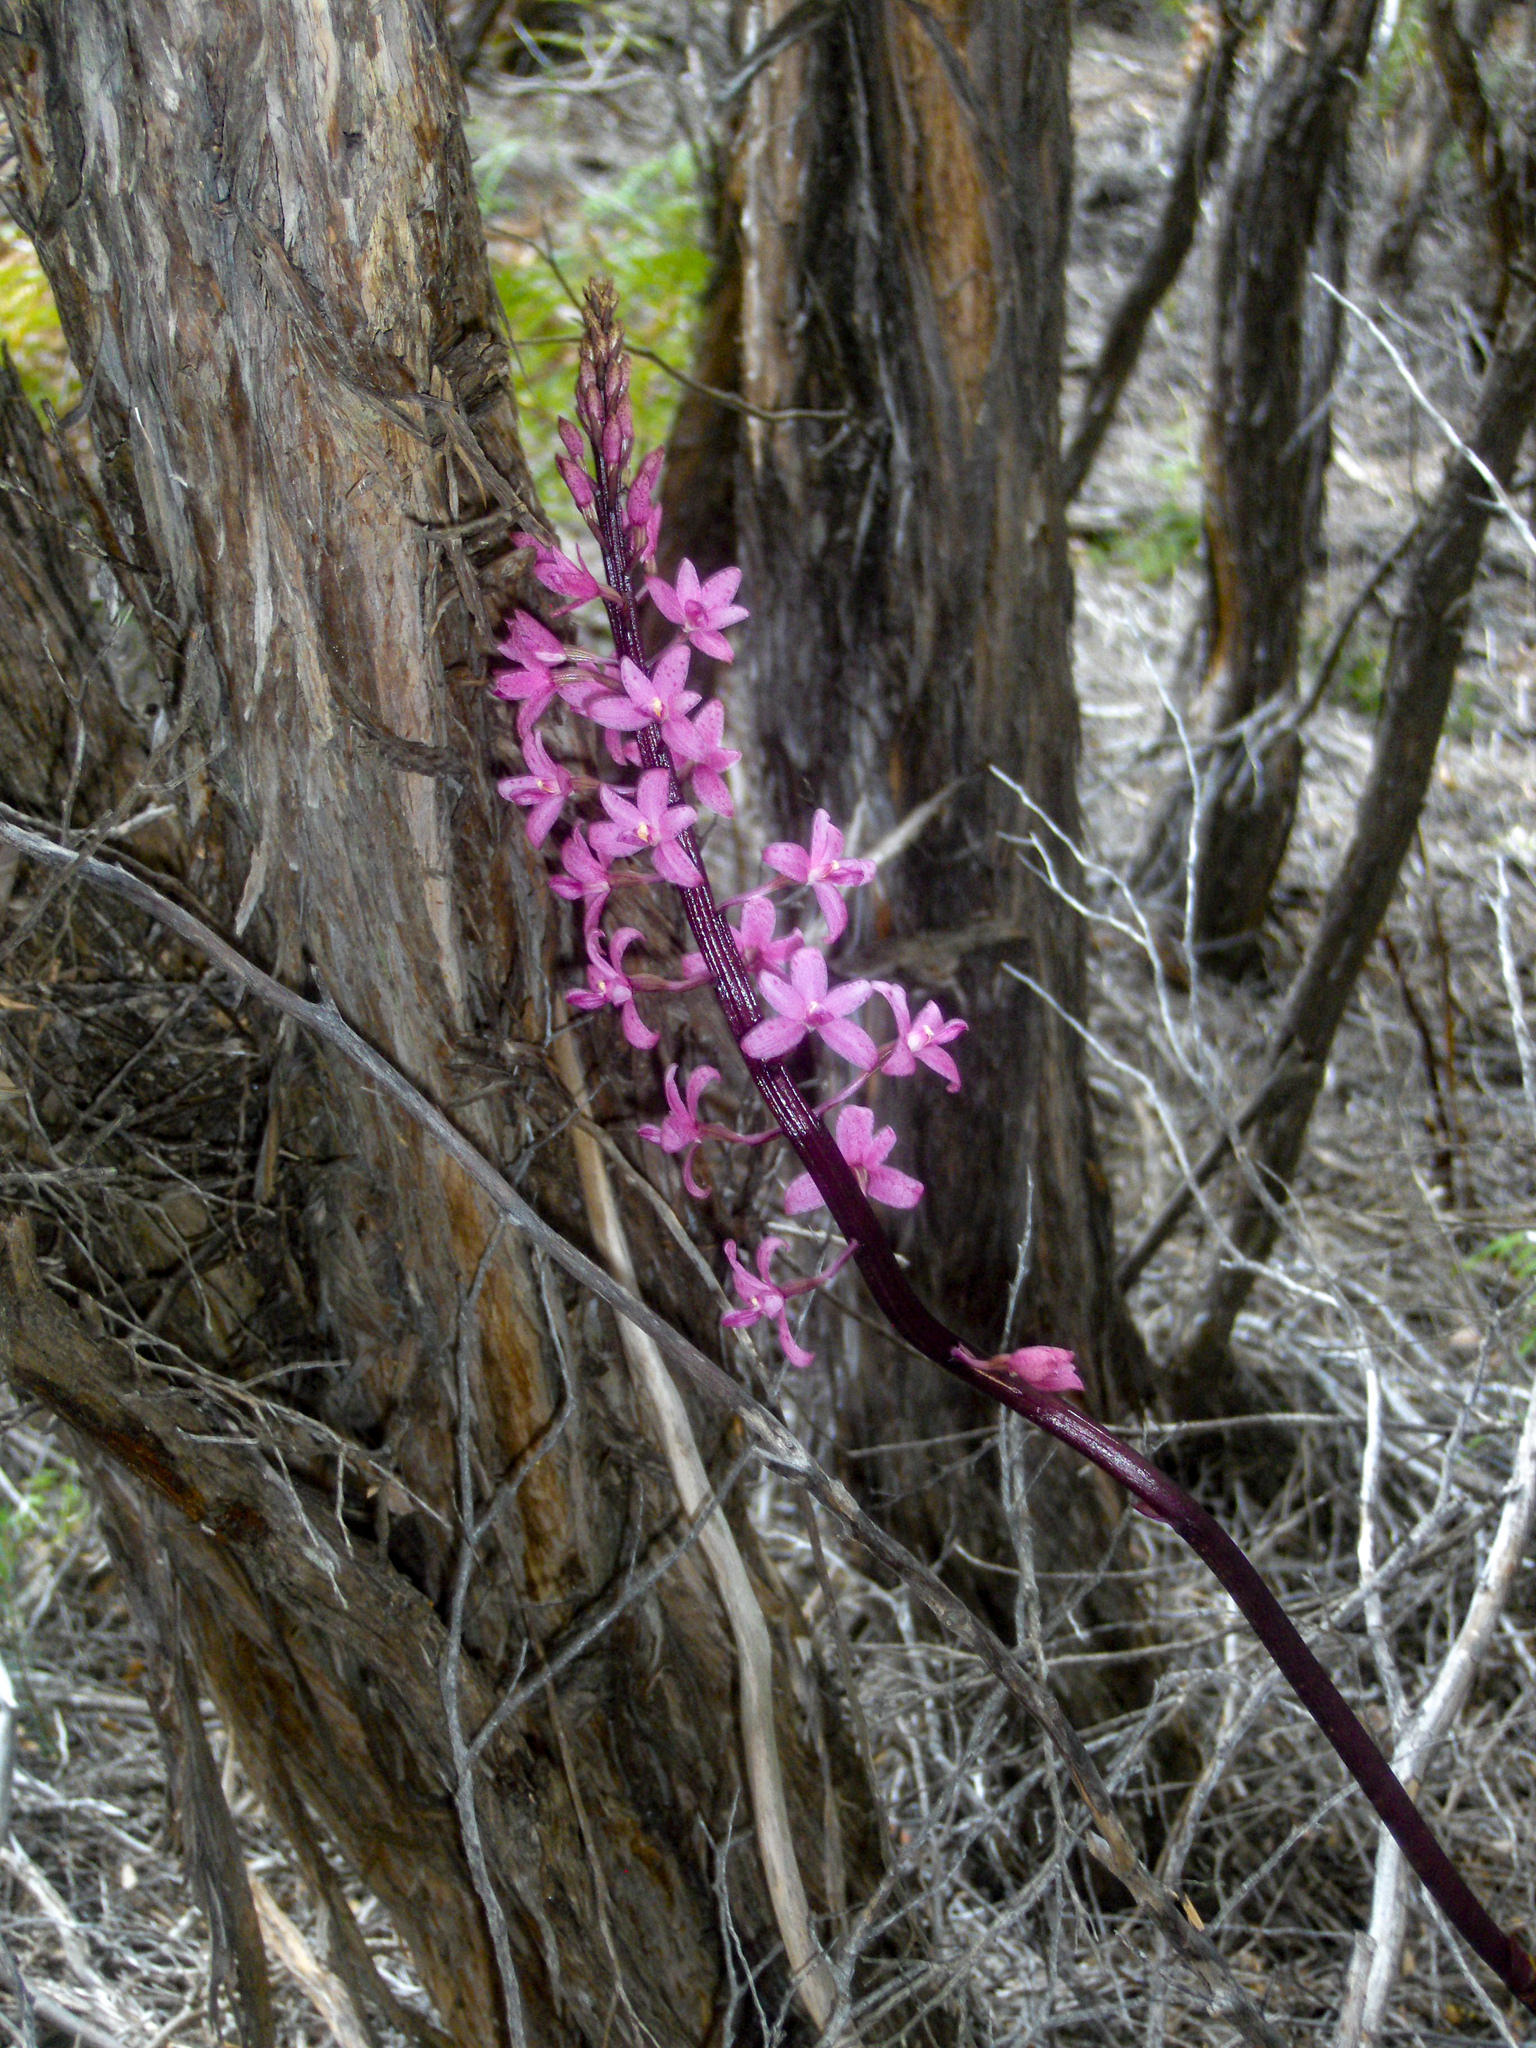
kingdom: Plantae
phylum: Tracheophyta
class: Liliopsida
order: Asparagales
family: Orchidaceae
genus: Dipodium
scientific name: Dipodium roseum
